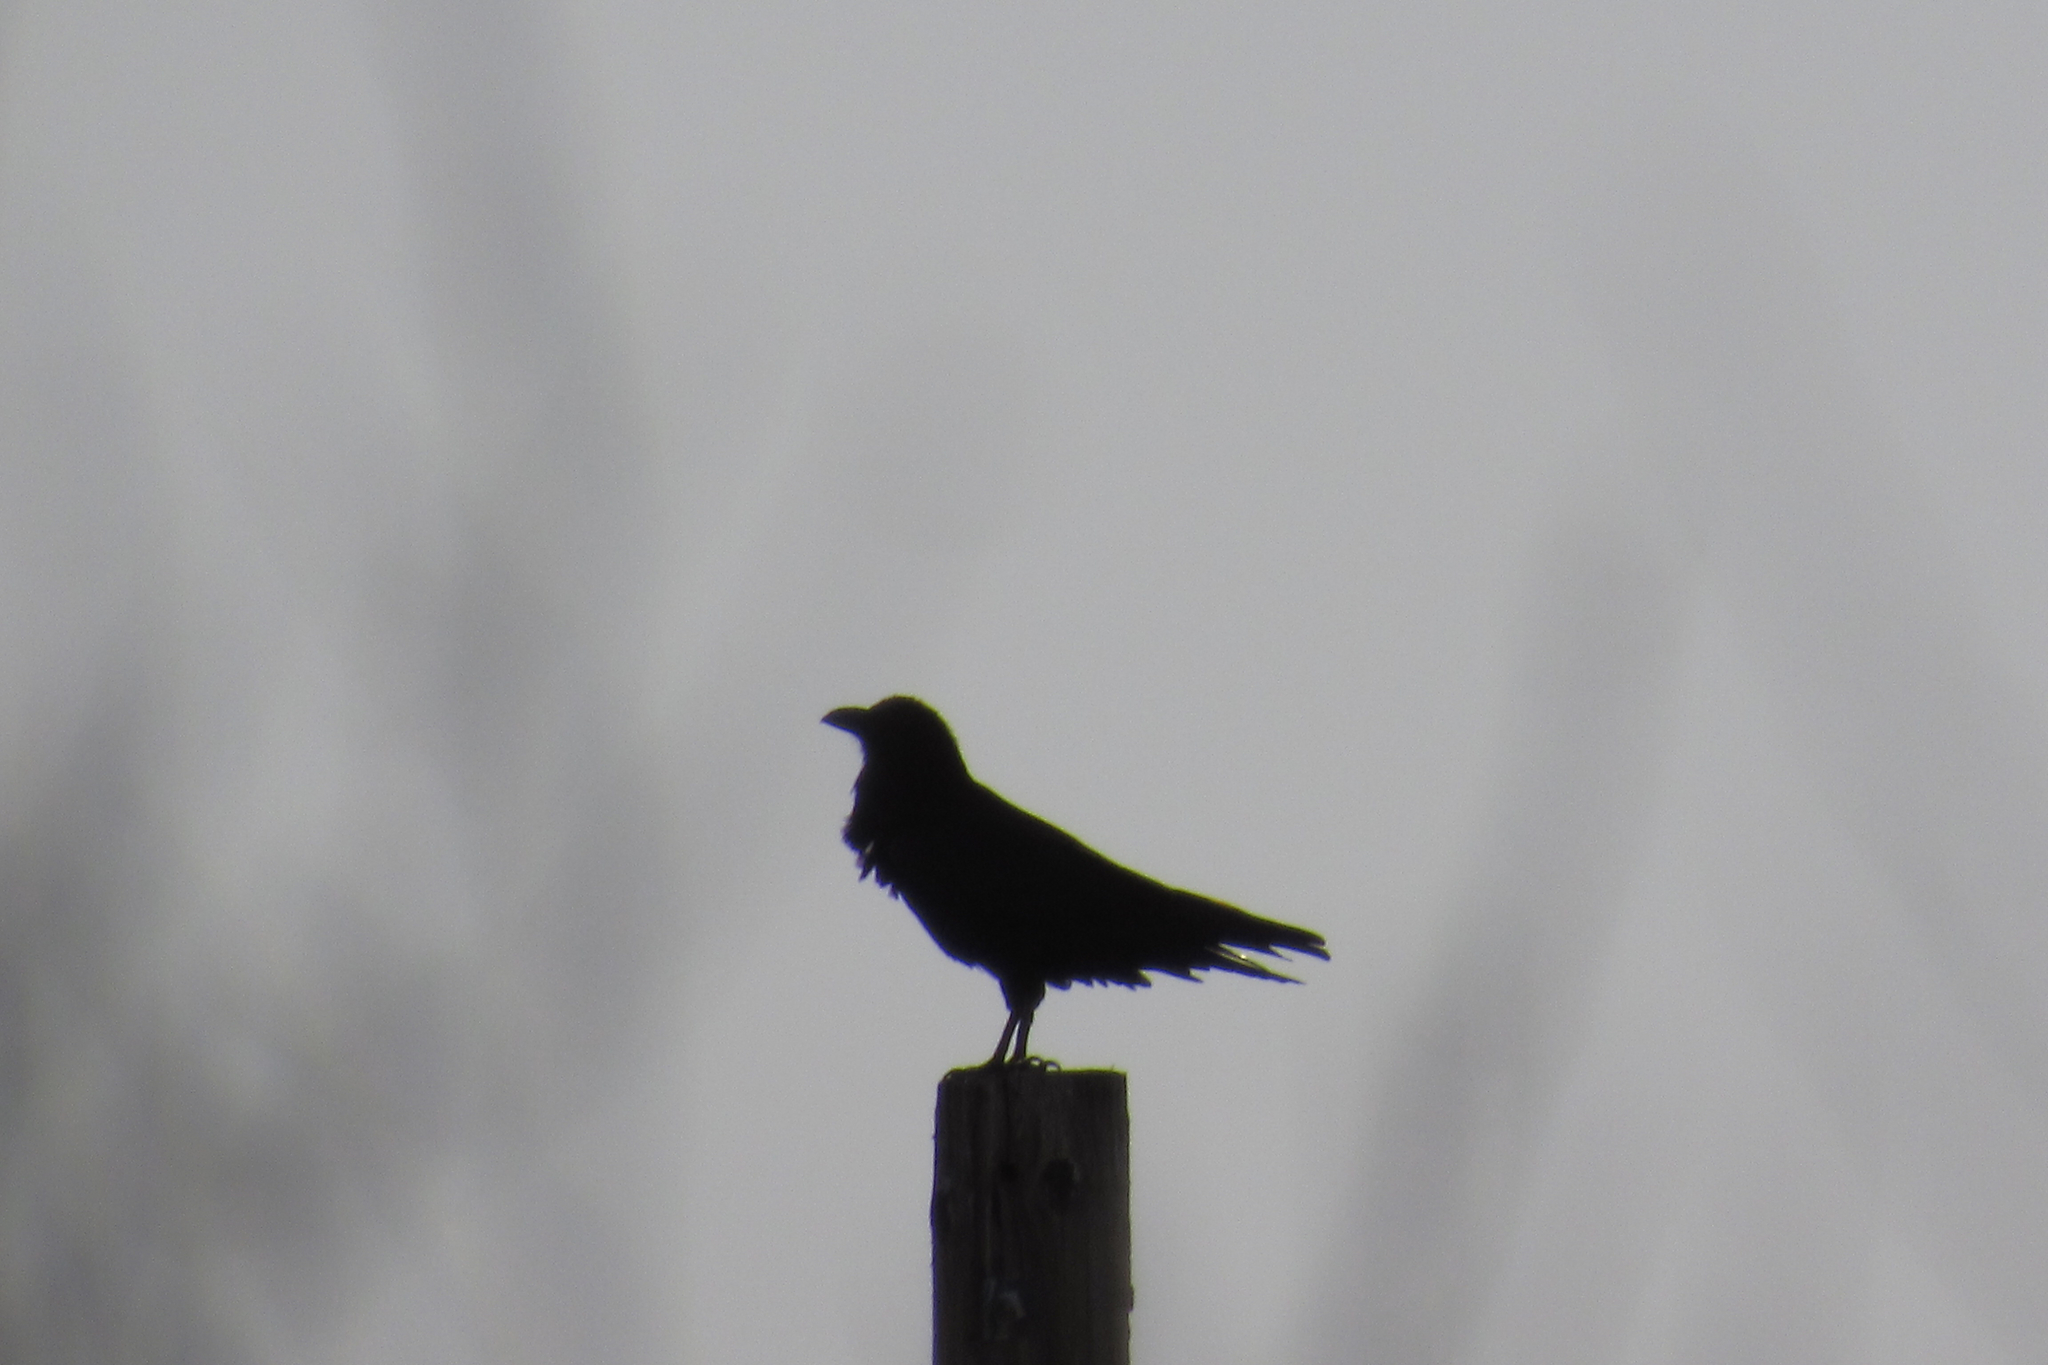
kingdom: Animalia
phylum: Chordata
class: Aves
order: Passeriformes
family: Corvidae
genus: Corvus
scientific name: Corvus corax
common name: Common raven
